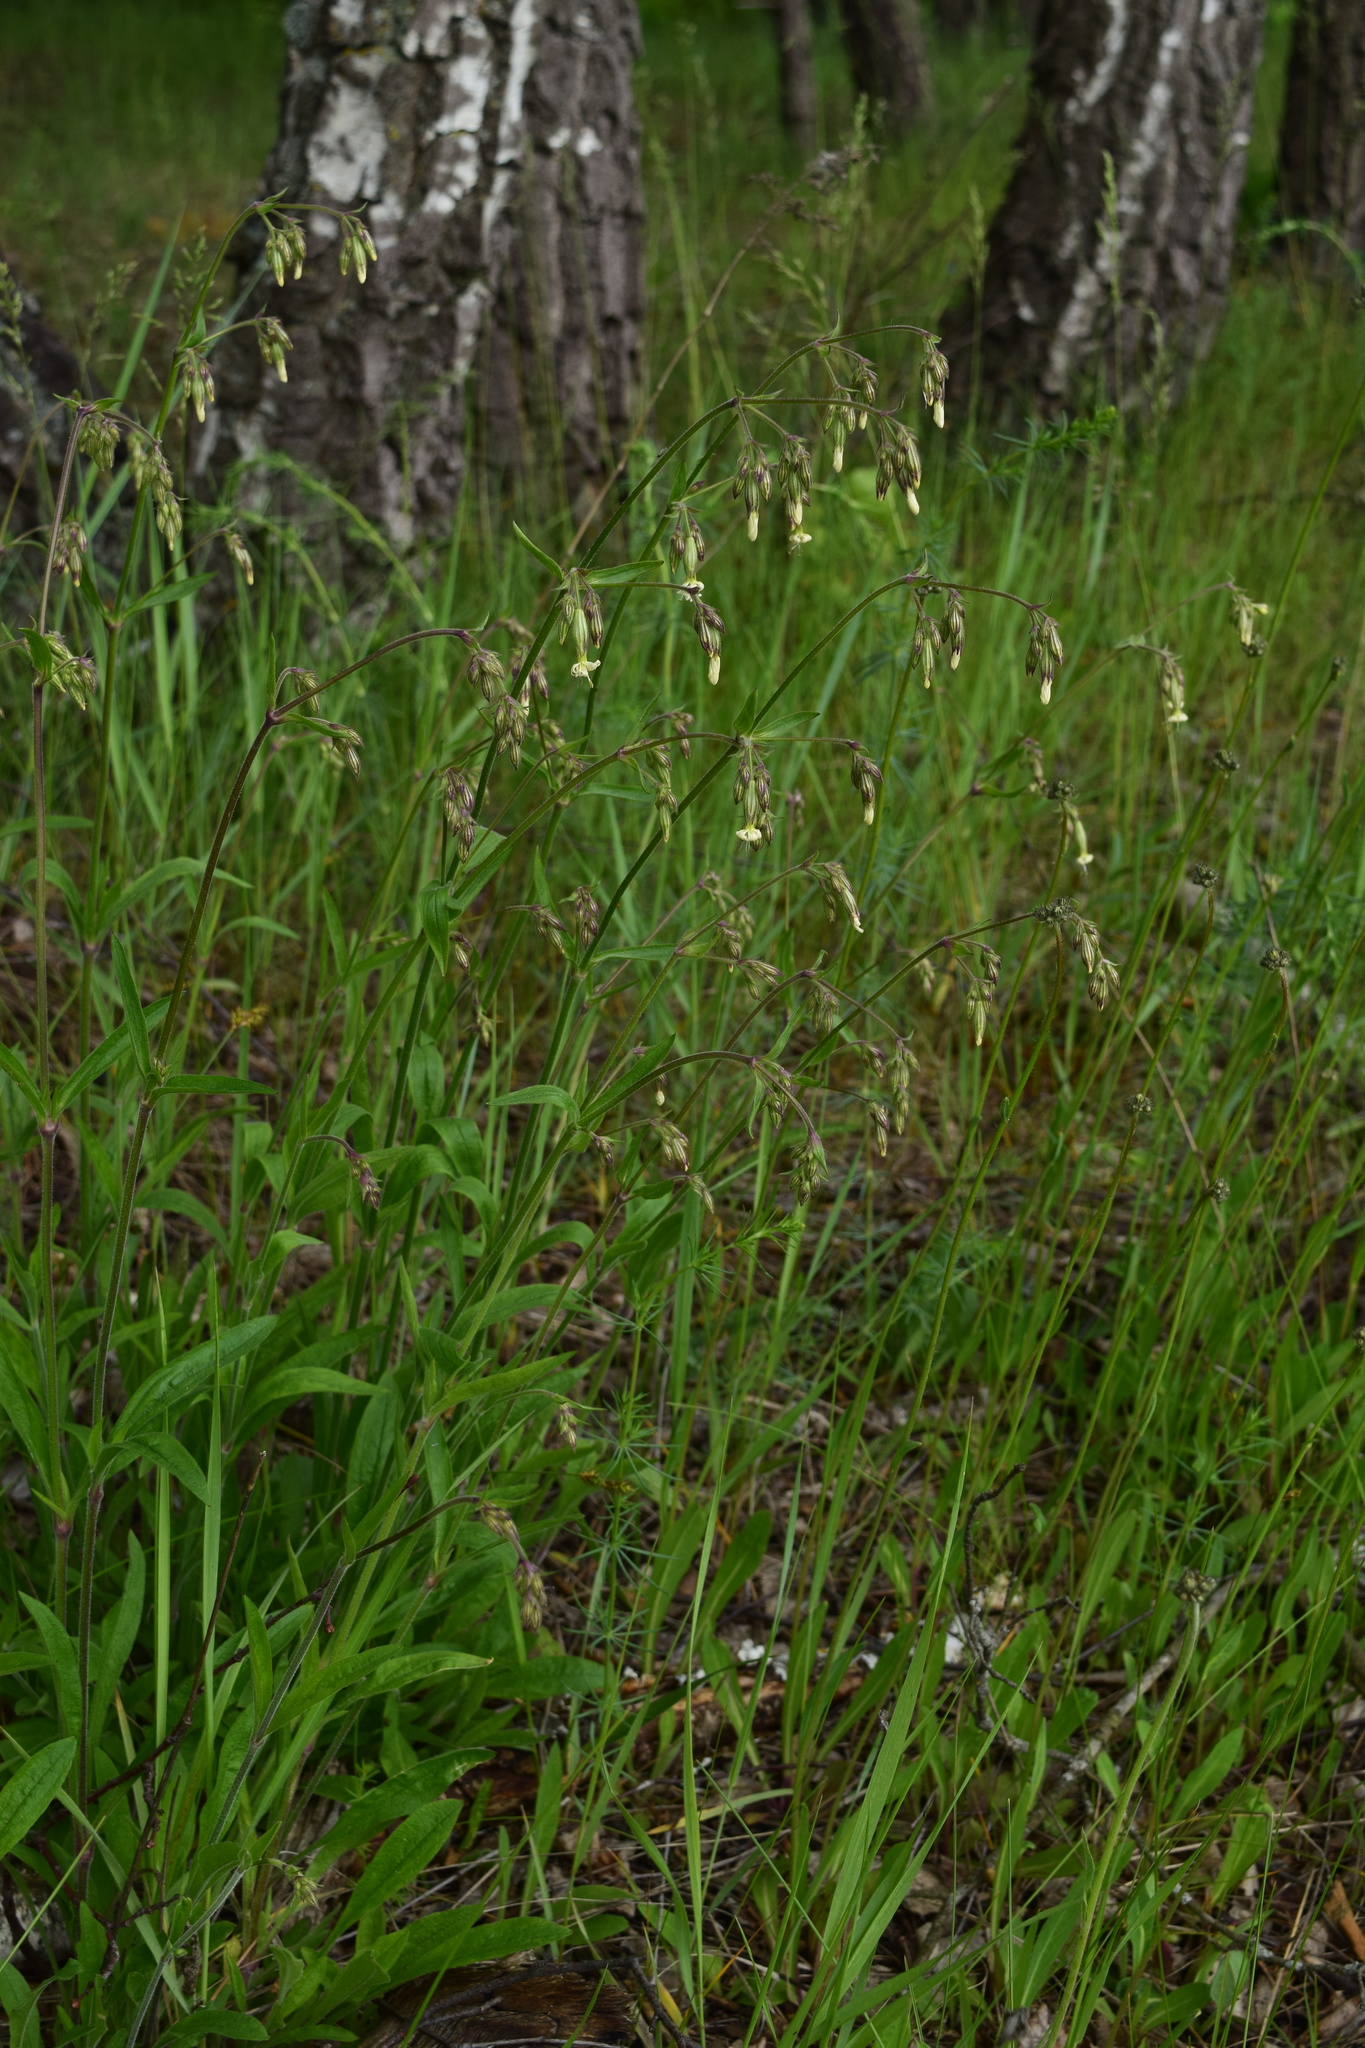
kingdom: Plantae
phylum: Tracheophyta
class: Magnoliopsida
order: Caryophyllales
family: Caryophyllaceae
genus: Silene
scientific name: Silene nutans
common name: Nottingham catchfly
